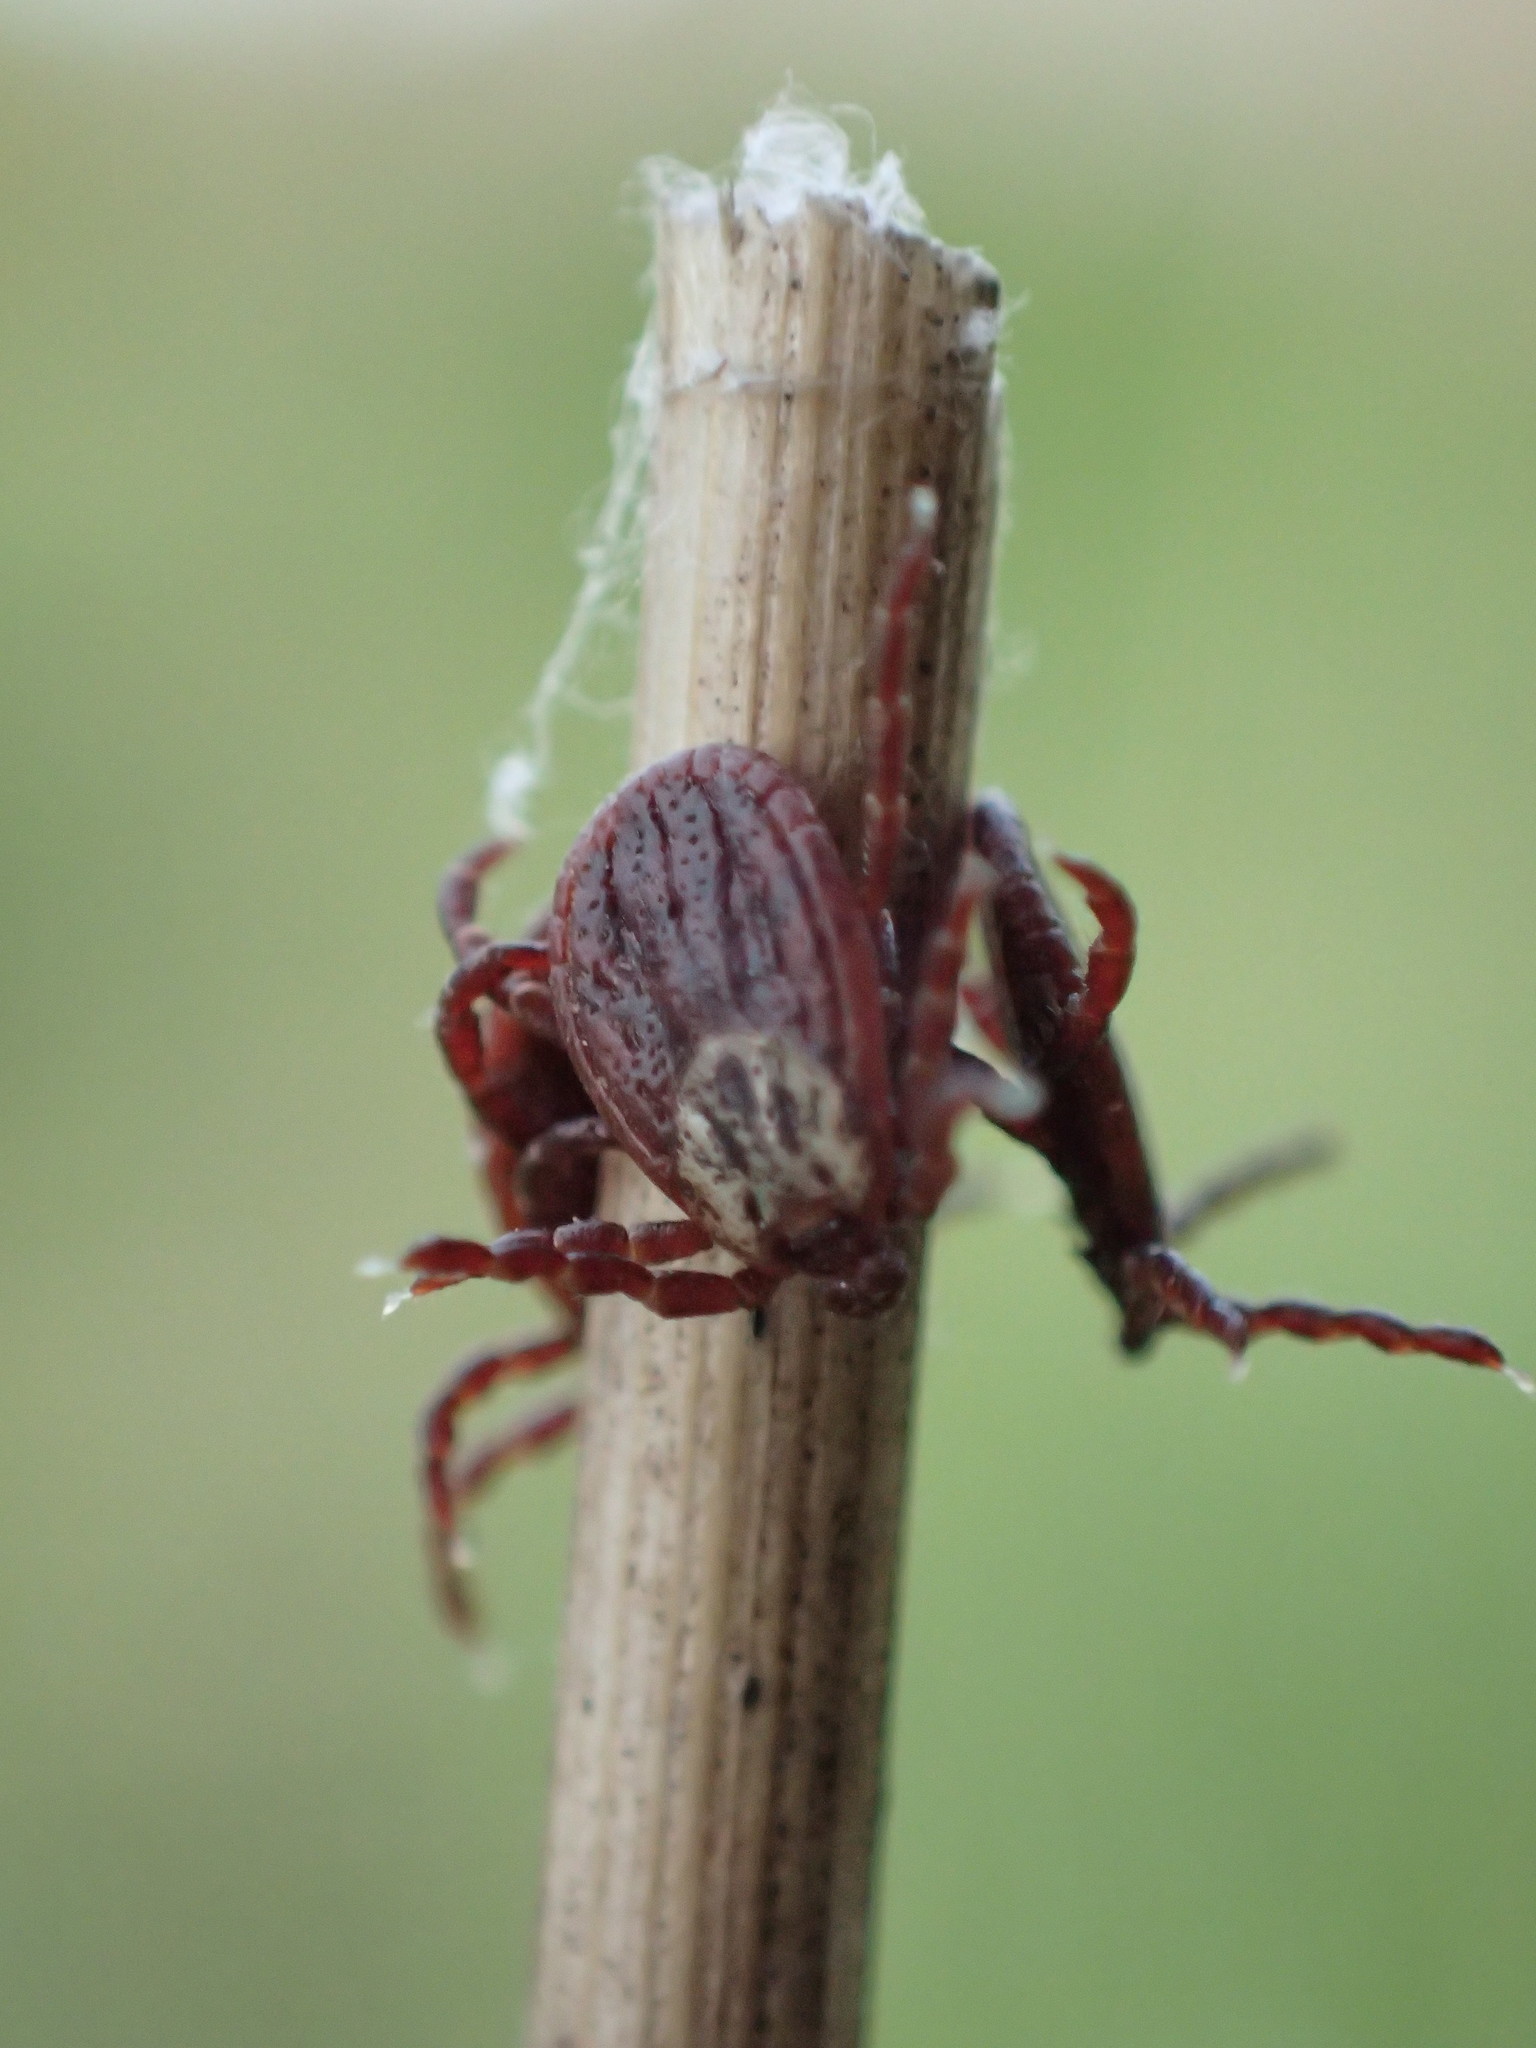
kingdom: Animalia
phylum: Arthropoda
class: Arachnida
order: Ixodida
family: Ixodidae
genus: Dermacentor
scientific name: Dermacentor reticulatus
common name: Ornate cow tick
